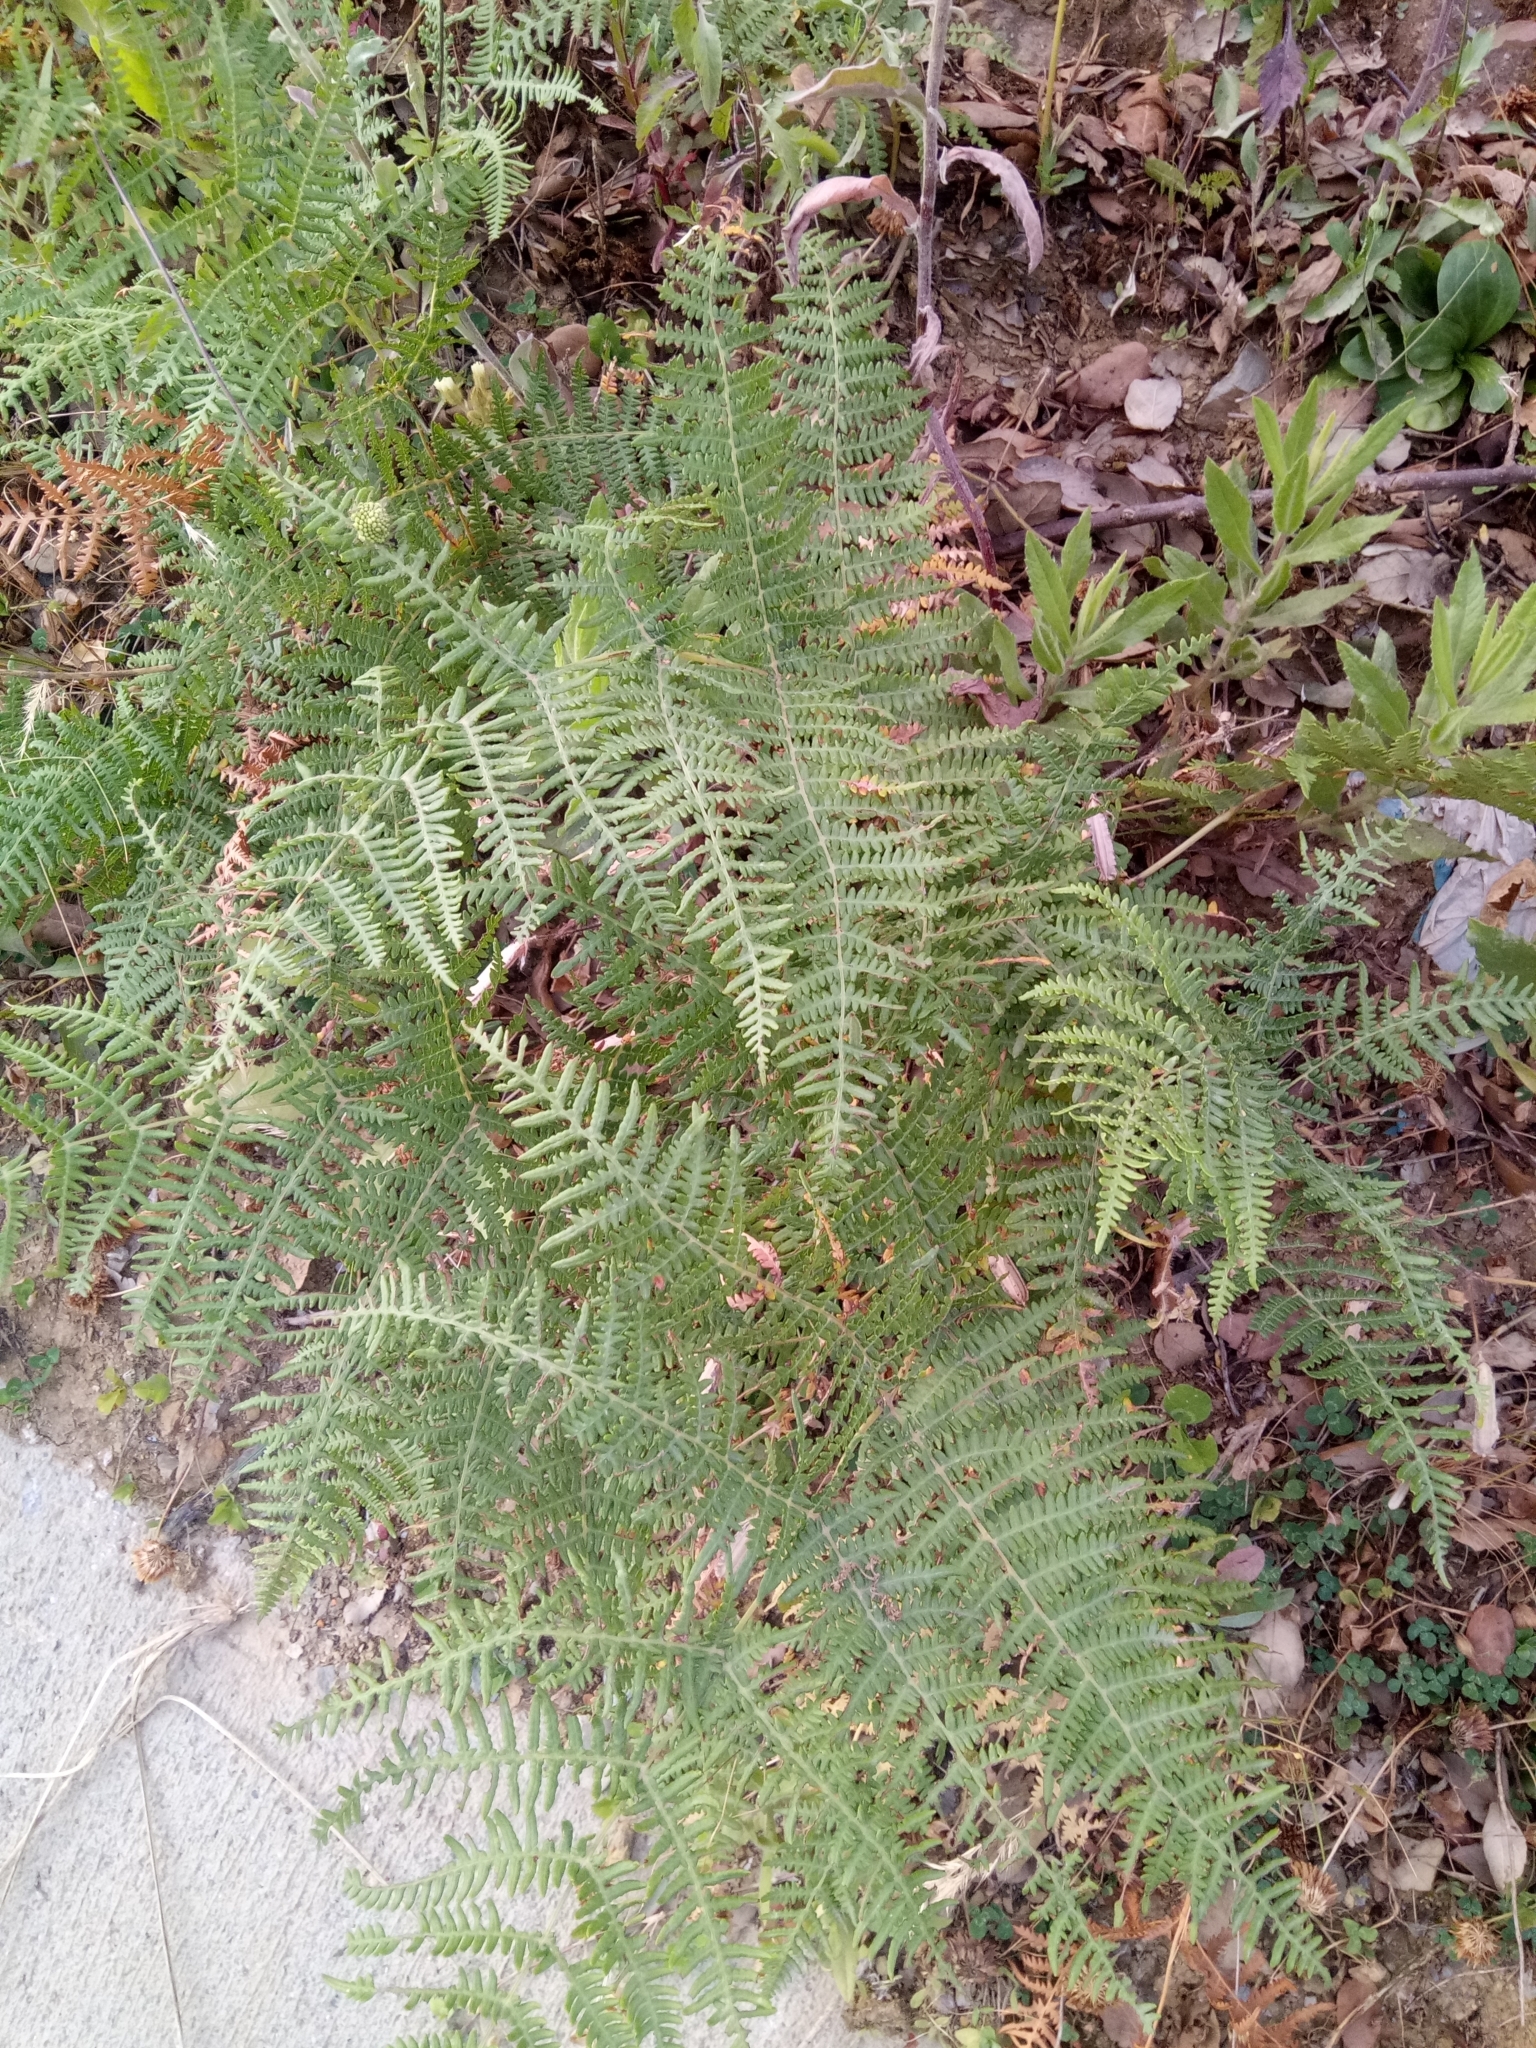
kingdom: Plantae
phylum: Tracheophyta
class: Polypodiopsida
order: Polypodiales
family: Dennstaedtiaceae
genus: Pteridium
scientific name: Pteridium aquilinum
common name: Bracken
